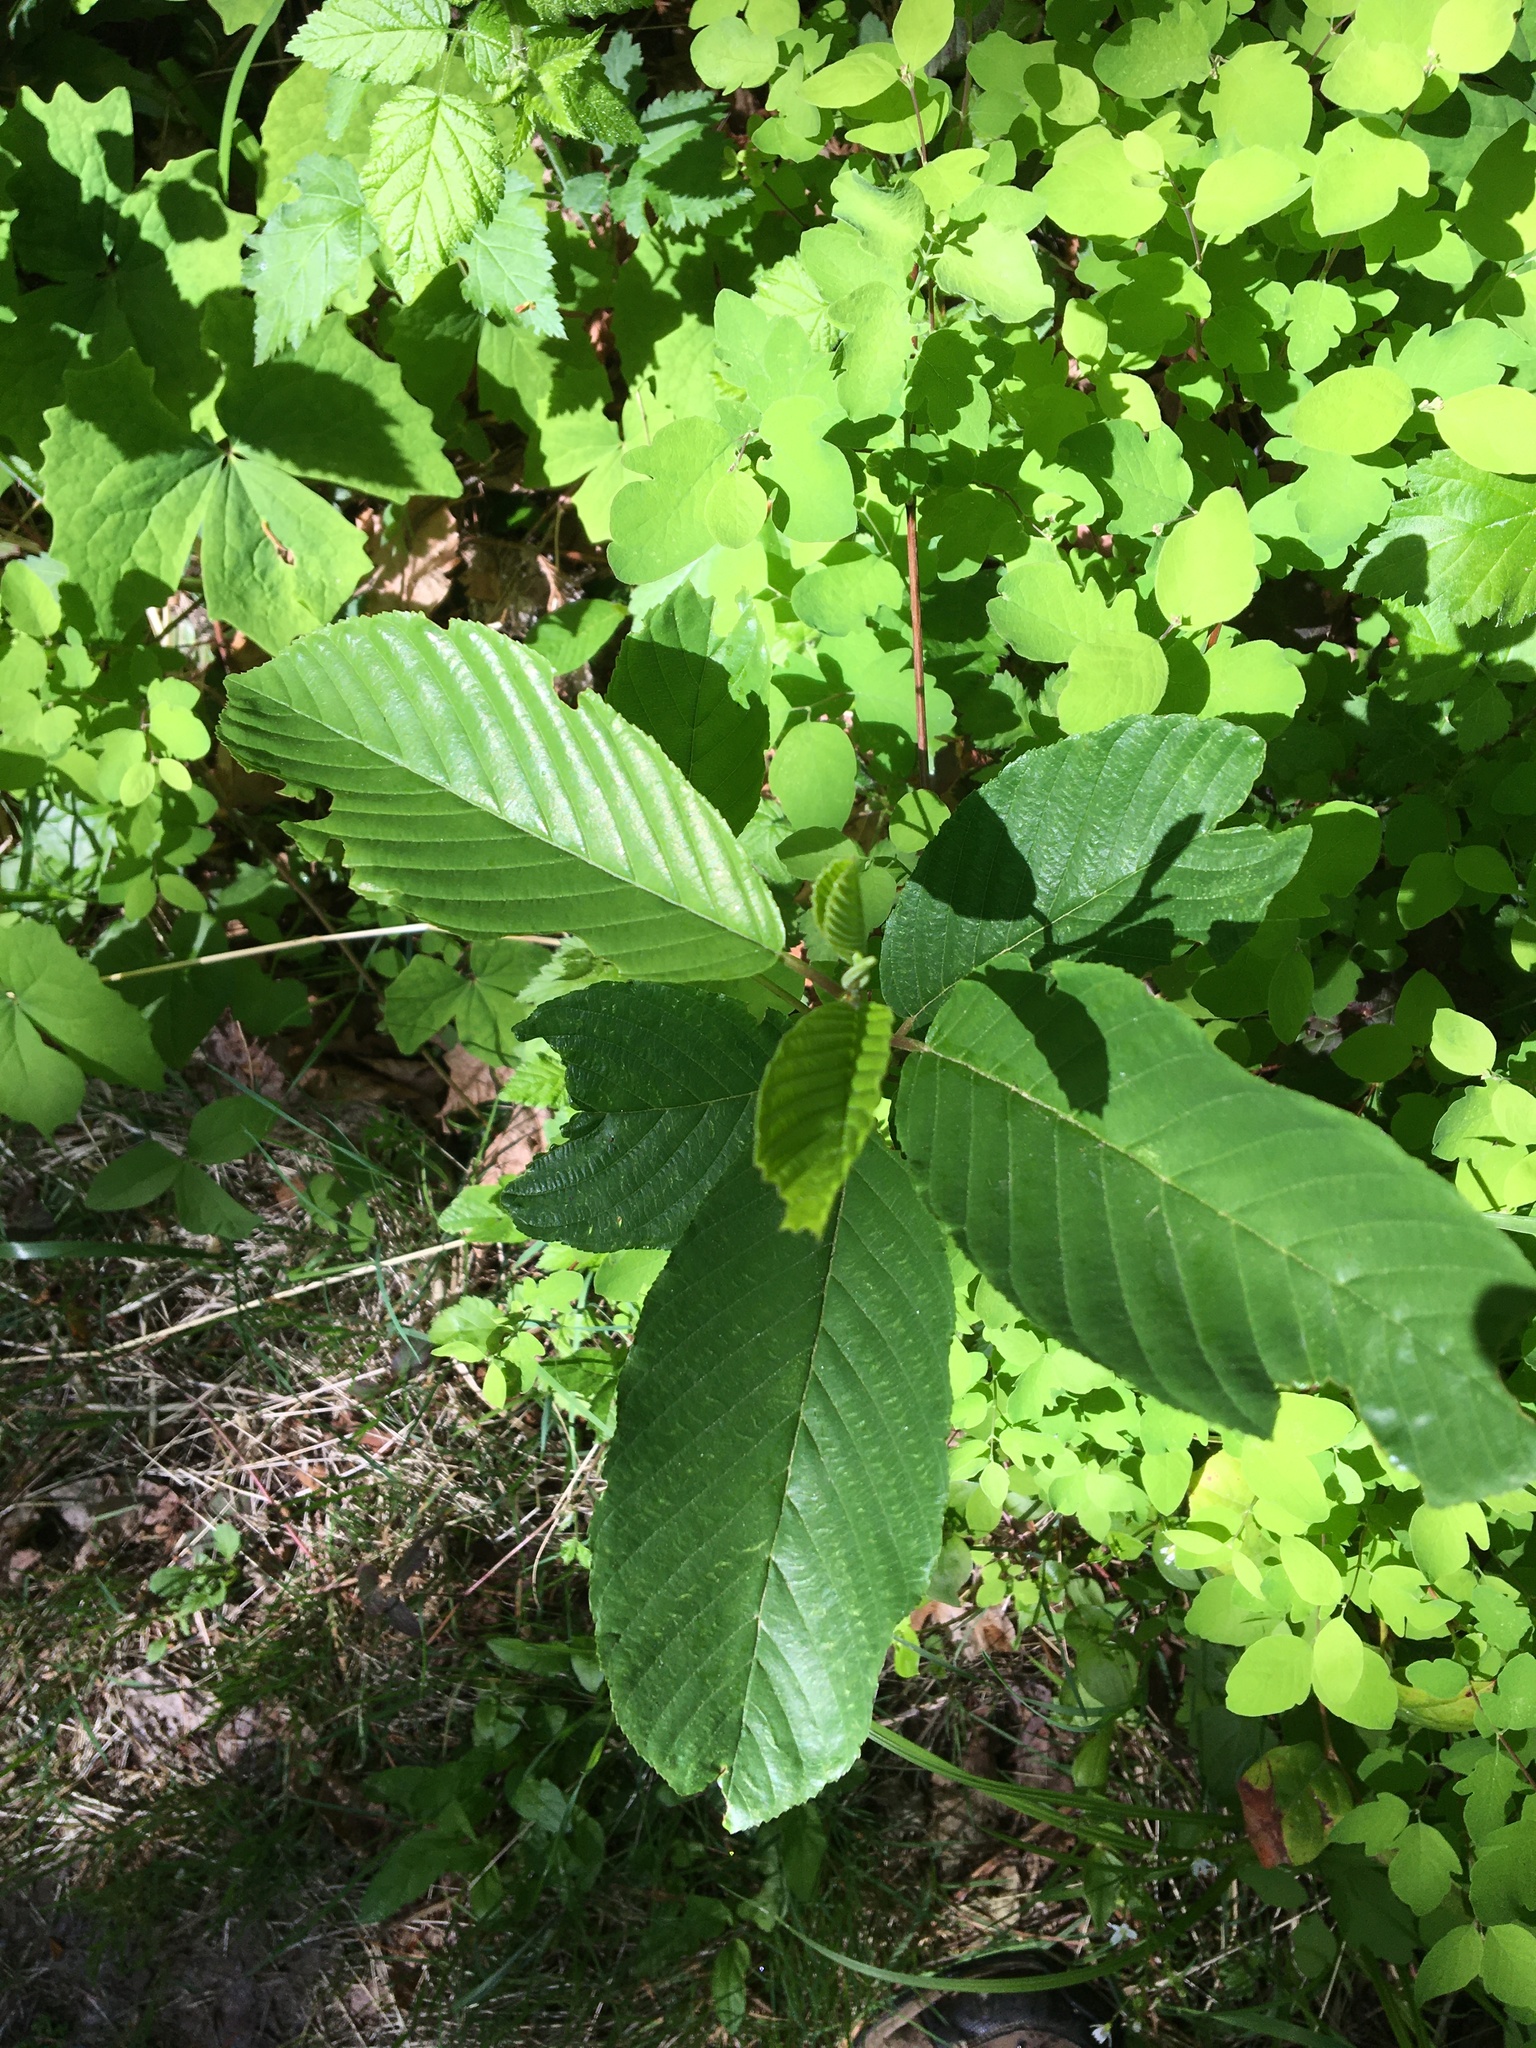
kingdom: Plantae
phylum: Tracheophyta
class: Magnoliopsida
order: Rosales
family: Rhamnaceae
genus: Frangula
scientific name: Frangula purshiana
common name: Cascara buckthorn
